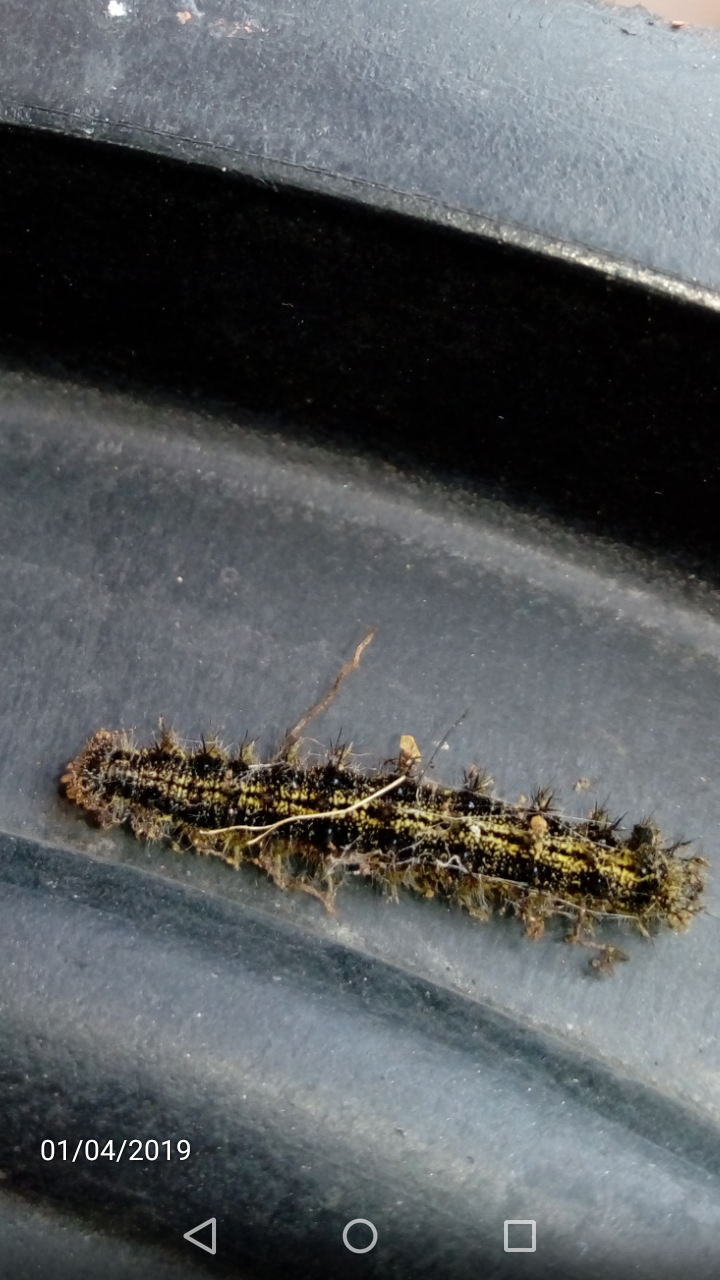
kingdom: Animalia
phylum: Arthropoda
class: Insecta
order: Lepidoptera
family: Nymphalidae
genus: Aglais
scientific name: Aglais urticae
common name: Small tortoiseshell
